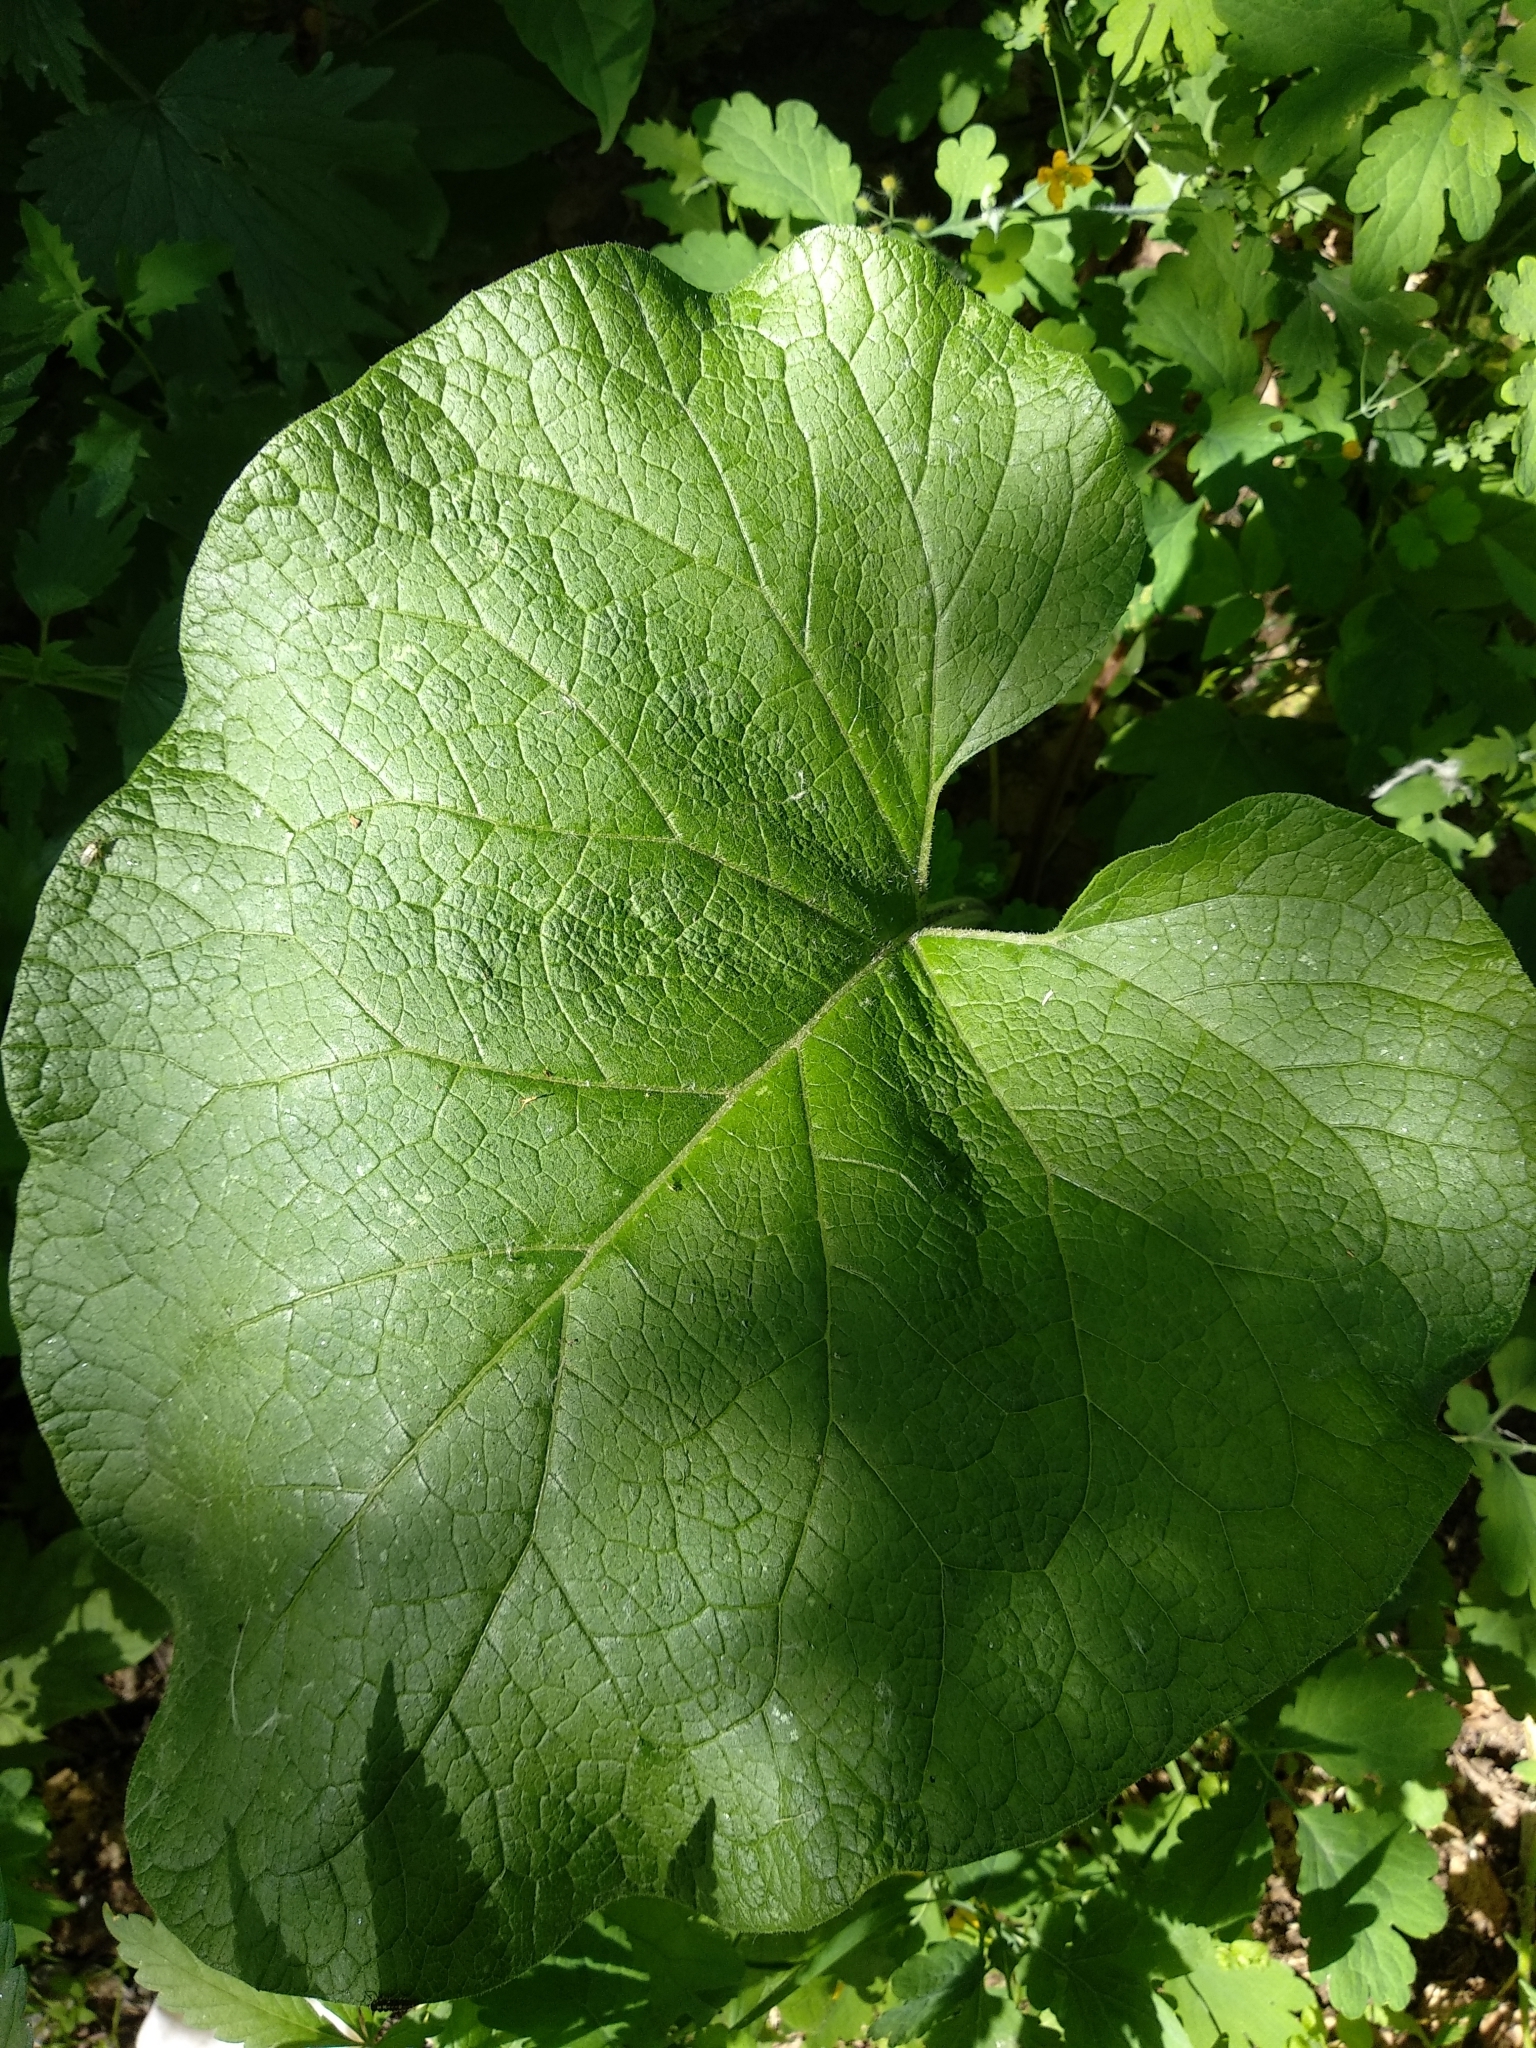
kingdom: Plantae
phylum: Tracheophyta
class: Magnoliopsida
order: Asterales
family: Asteraceae
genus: Arctium
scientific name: Arctium
